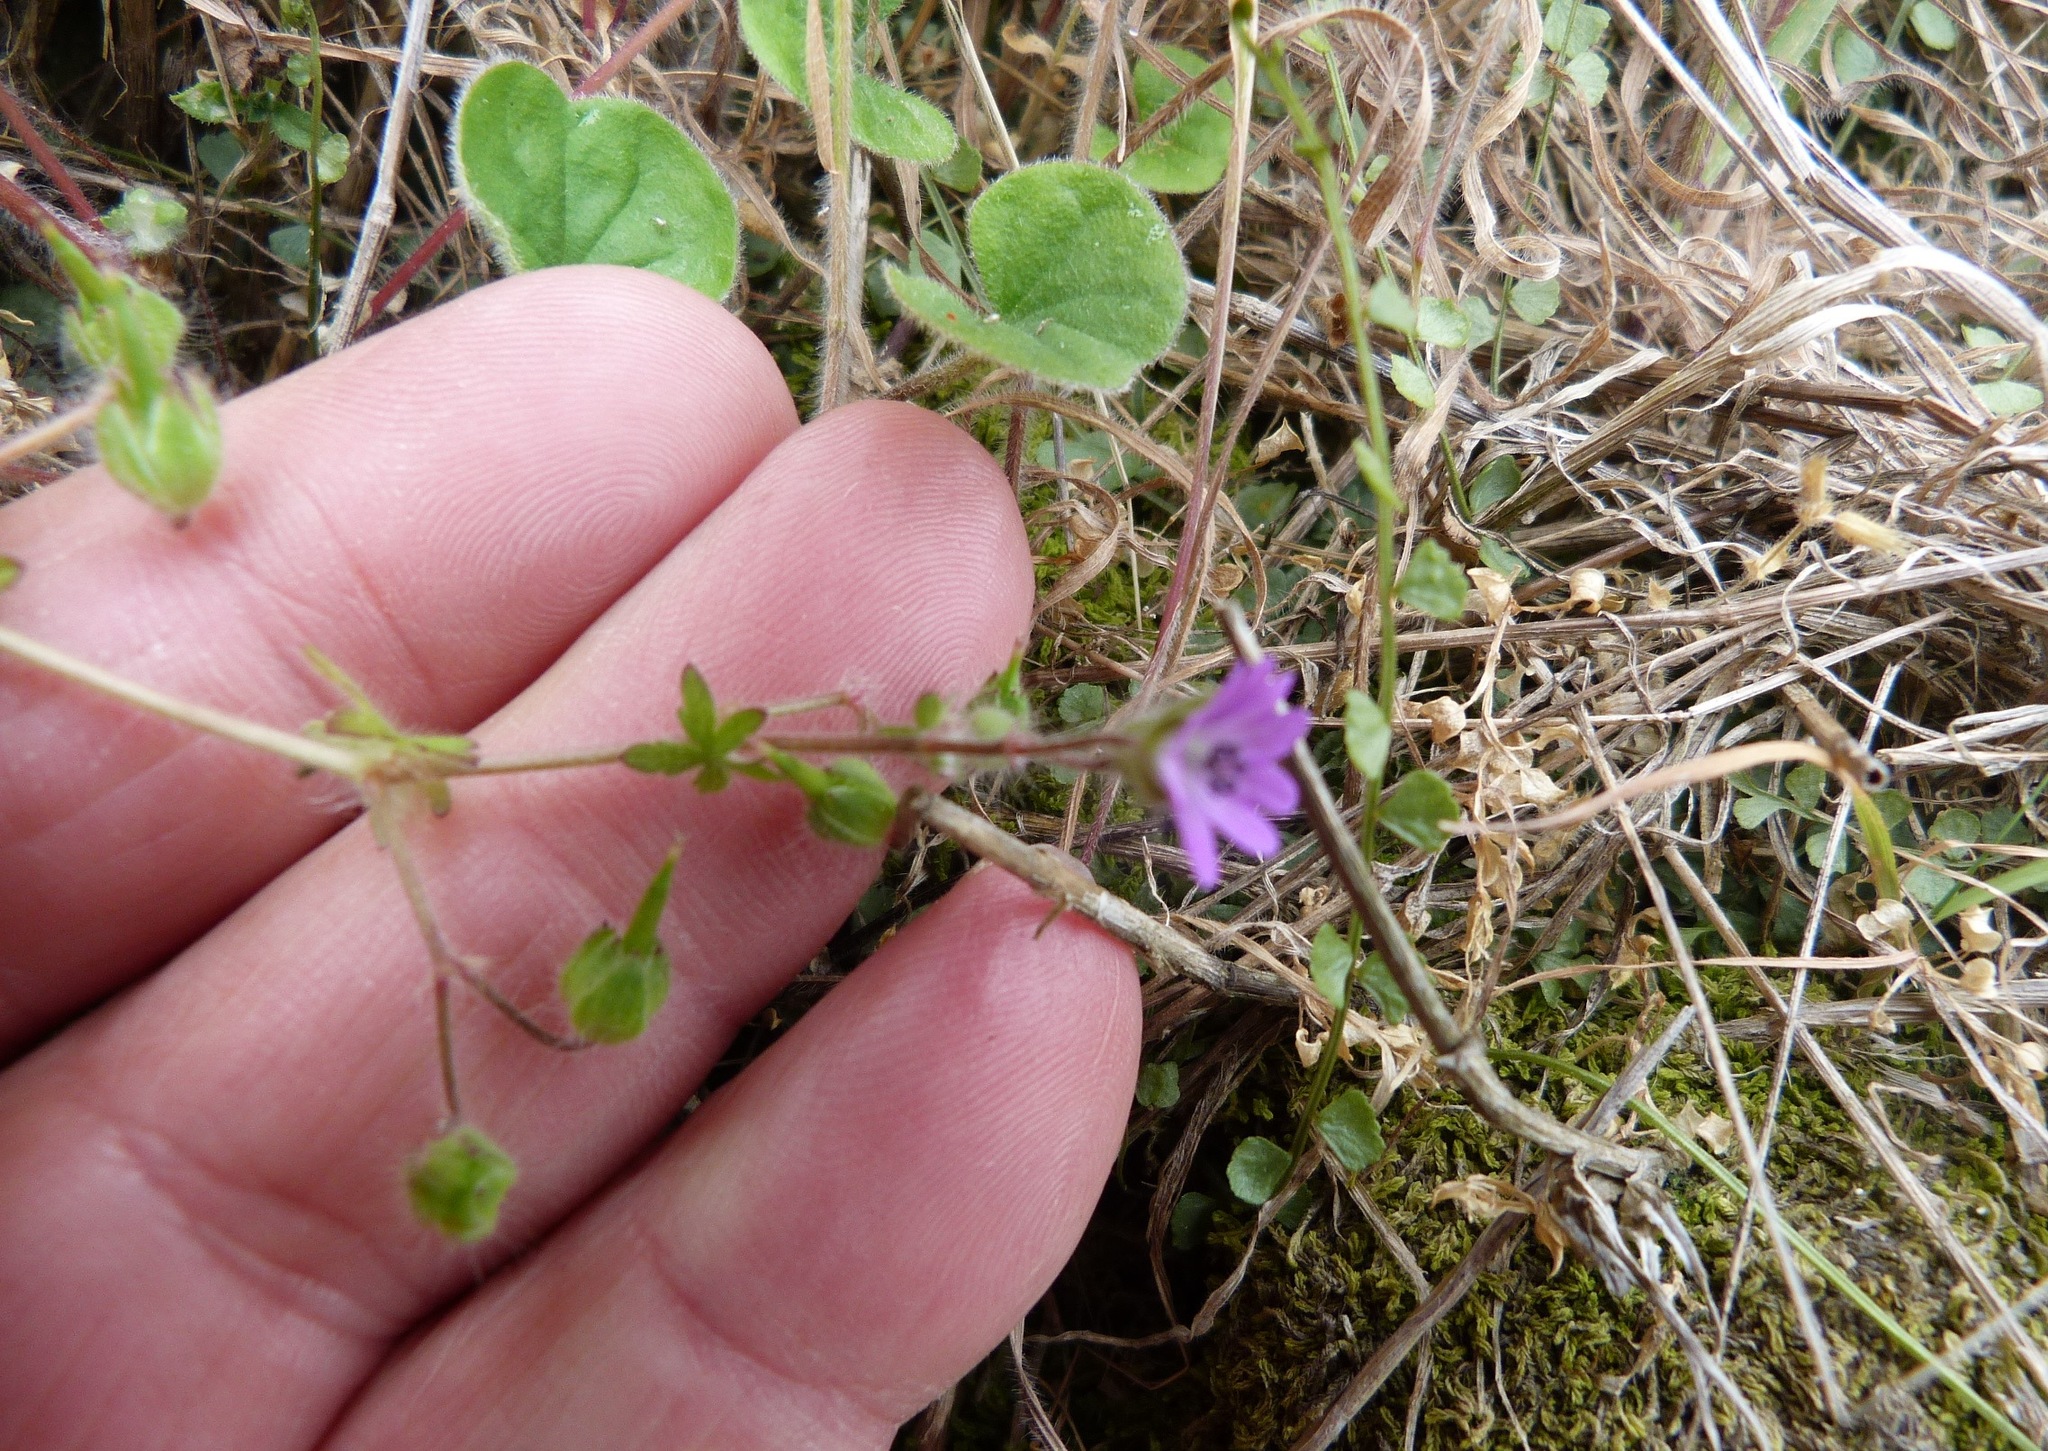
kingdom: Plantae
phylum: Tracheophyta
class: Polypodiopsida
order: Polypodiales
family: Aspleniaceae
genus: Asplenium
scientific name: Asplenium flabellifolium
